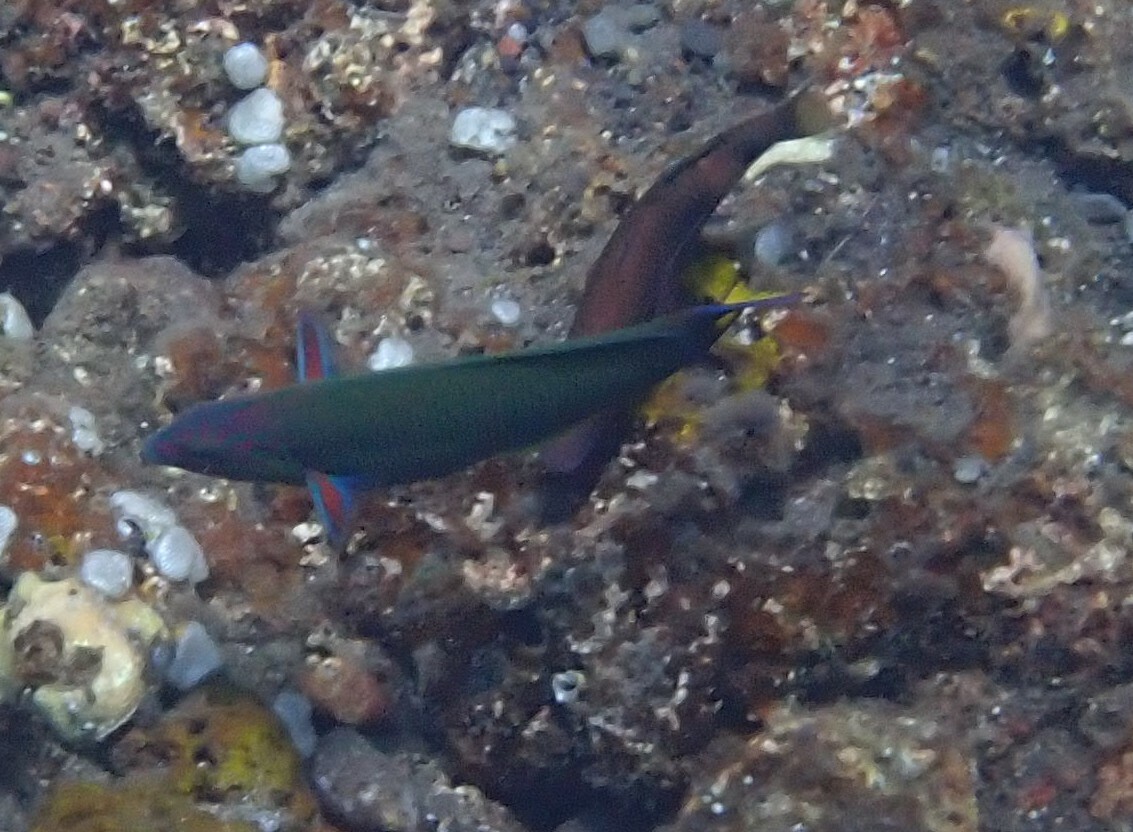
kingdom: Animalia
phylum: Chordata
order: Perciformes
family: Labridae
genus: Thalassoma
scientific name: Thalassoma lunare
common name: Blue wrasse
